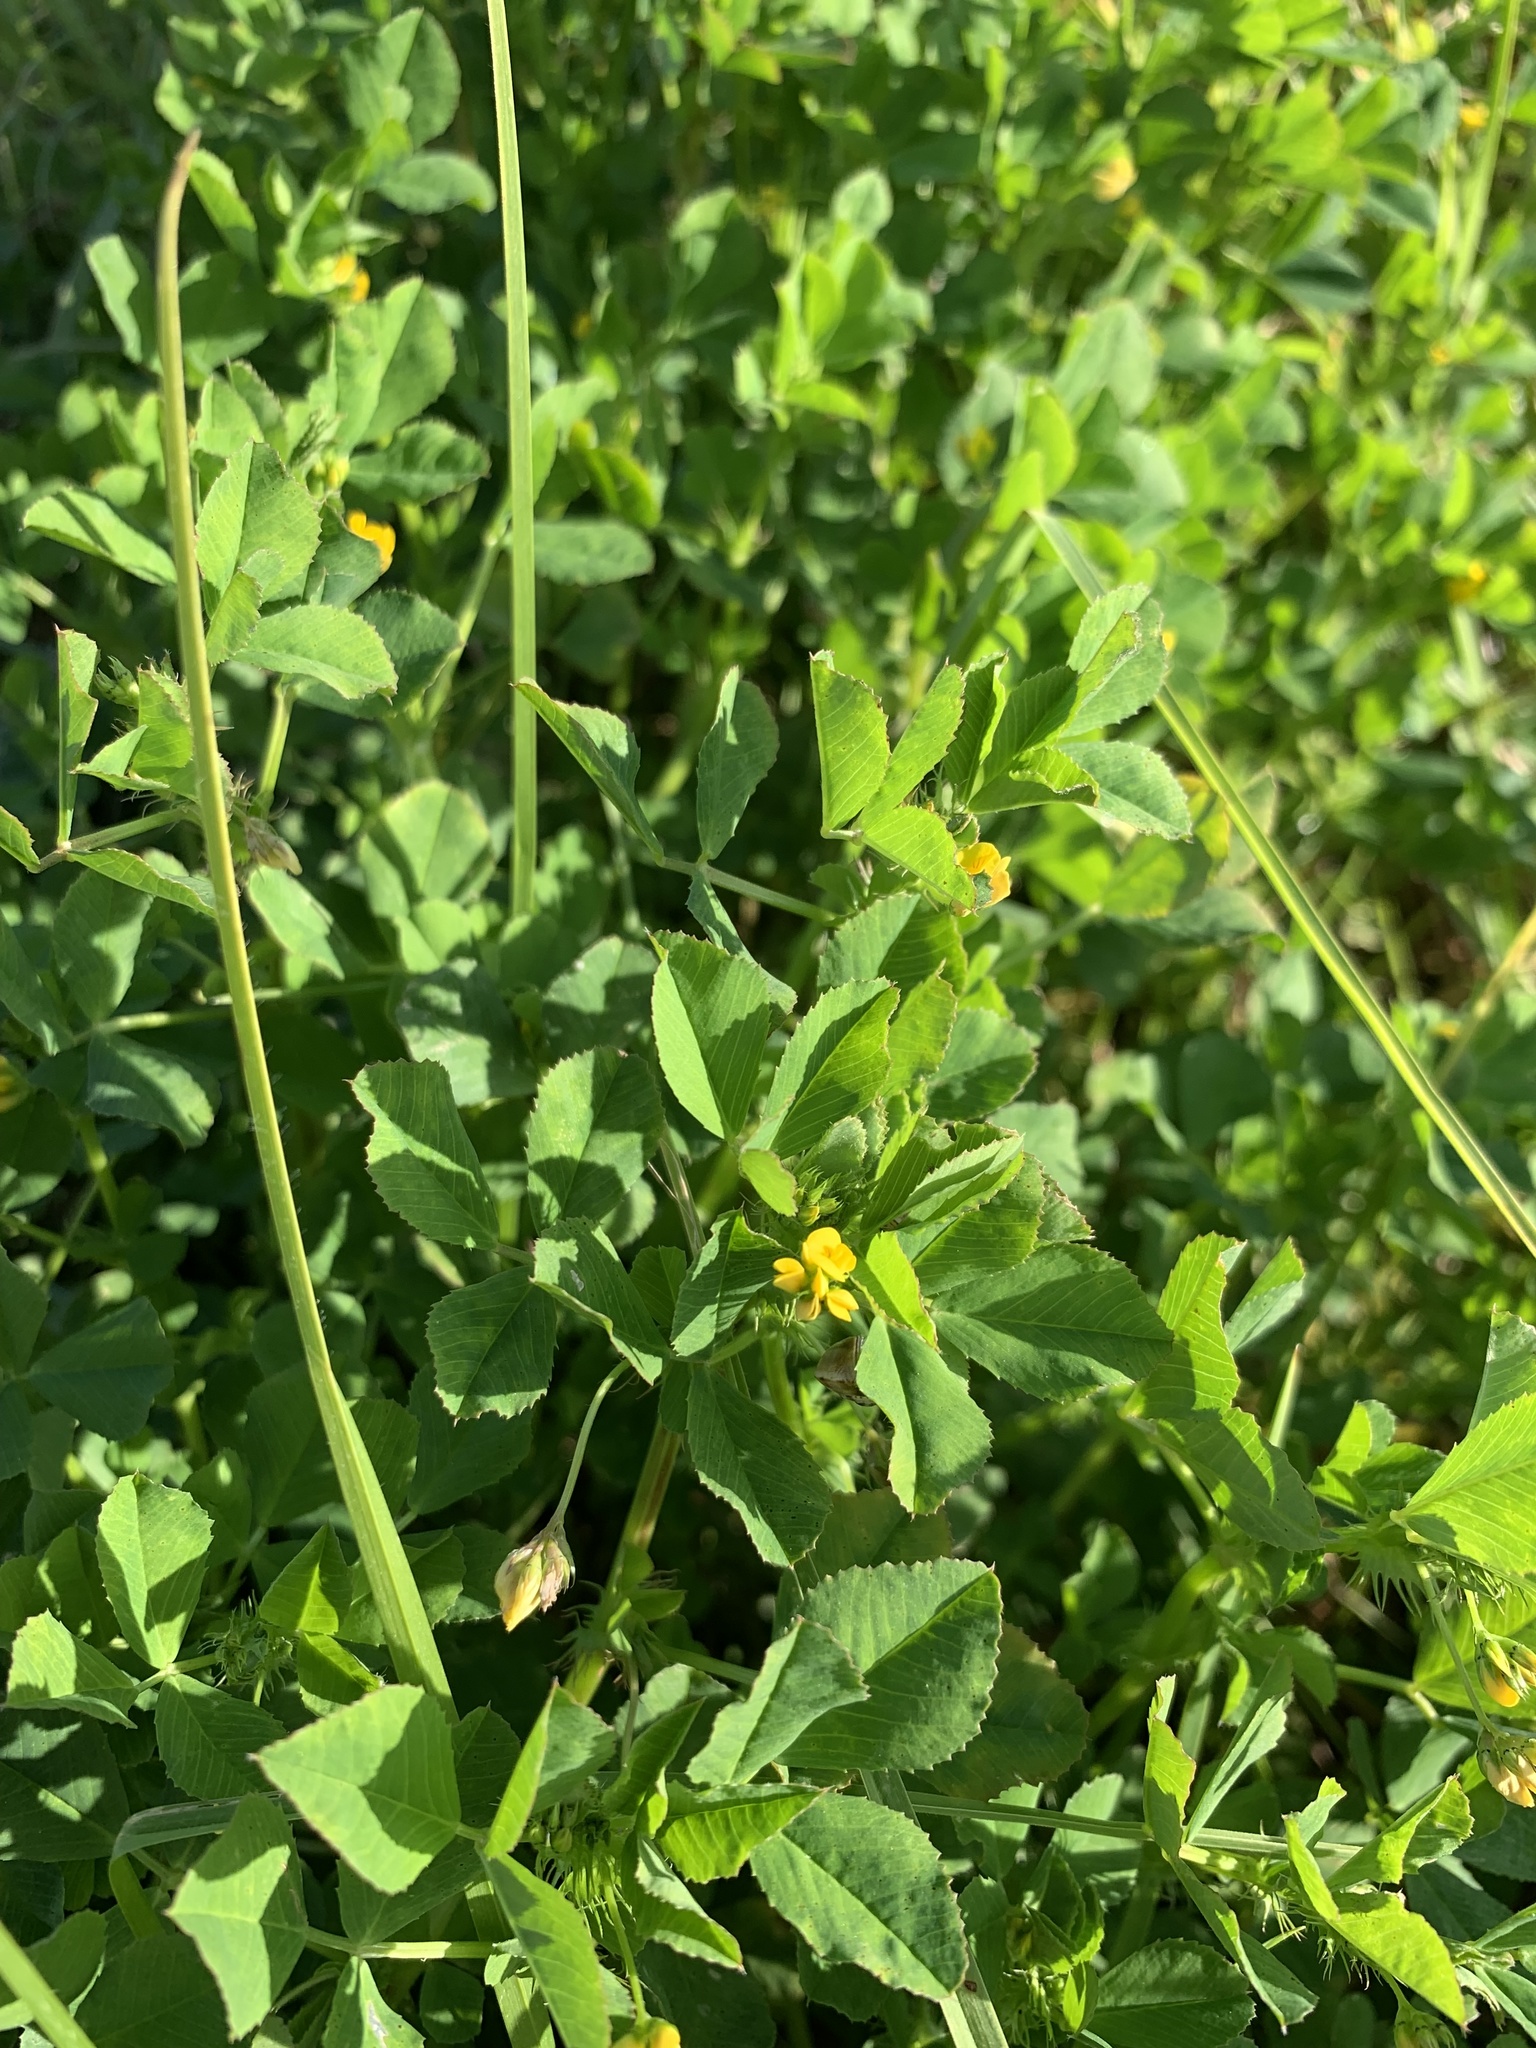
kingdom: Plantae
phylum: Tracheophyta
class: Magnoliopsida
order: Fabales
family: Fabaceae
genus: Medicago
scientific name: Medicago polymorpha
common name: Burclover
